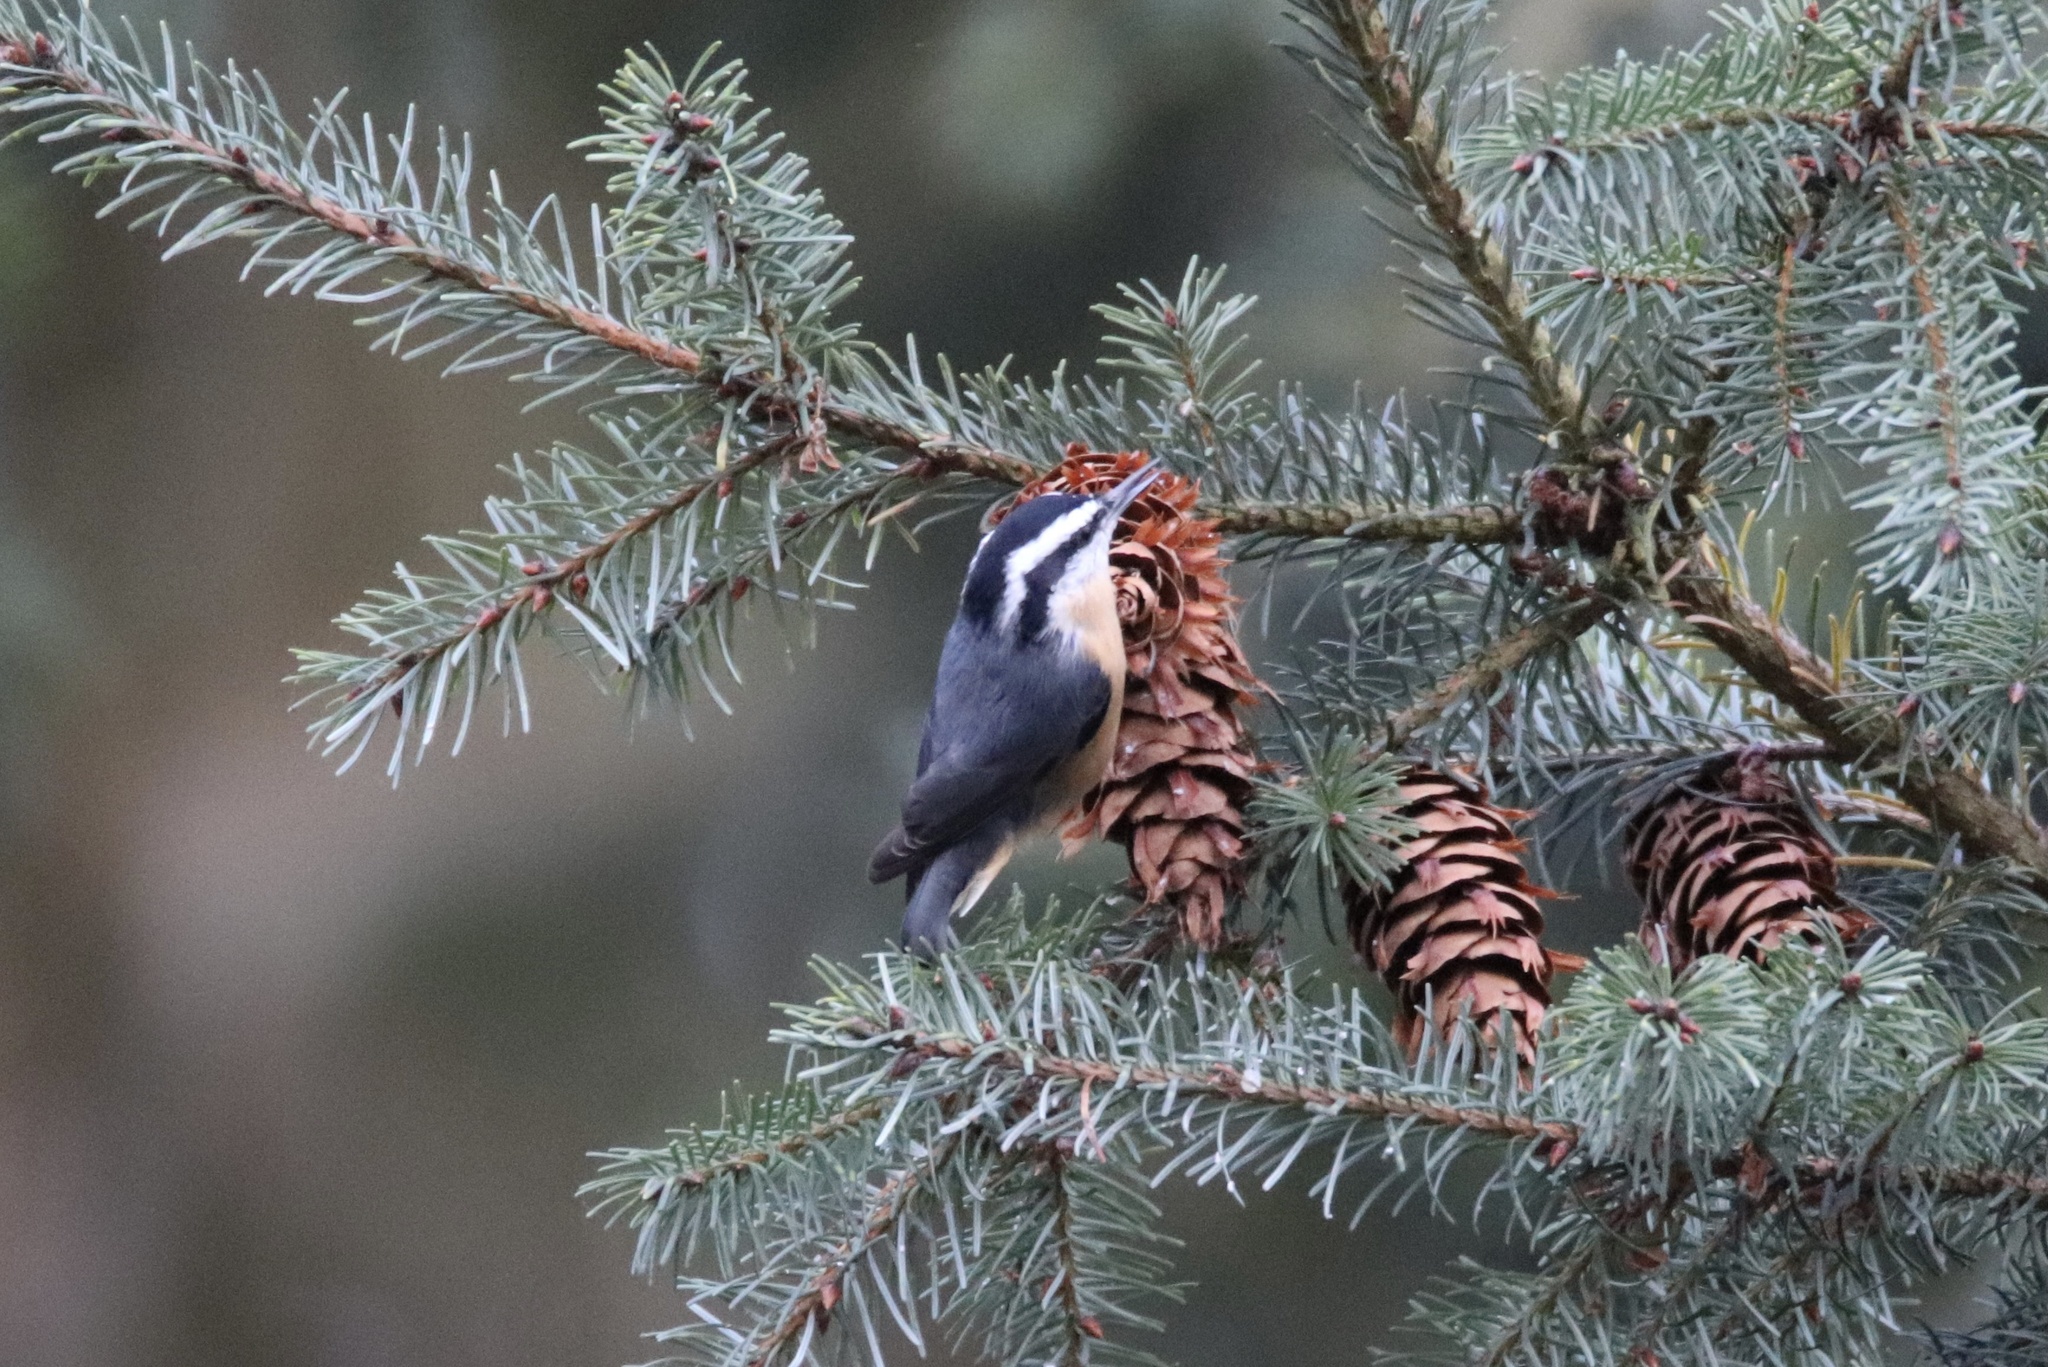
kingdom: Animalia
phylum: Chordata
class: Aves
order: Passeriformes
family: Sittidae
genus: Sitta
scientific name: Sitta canadensis
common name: Red-breasted nuthatch
